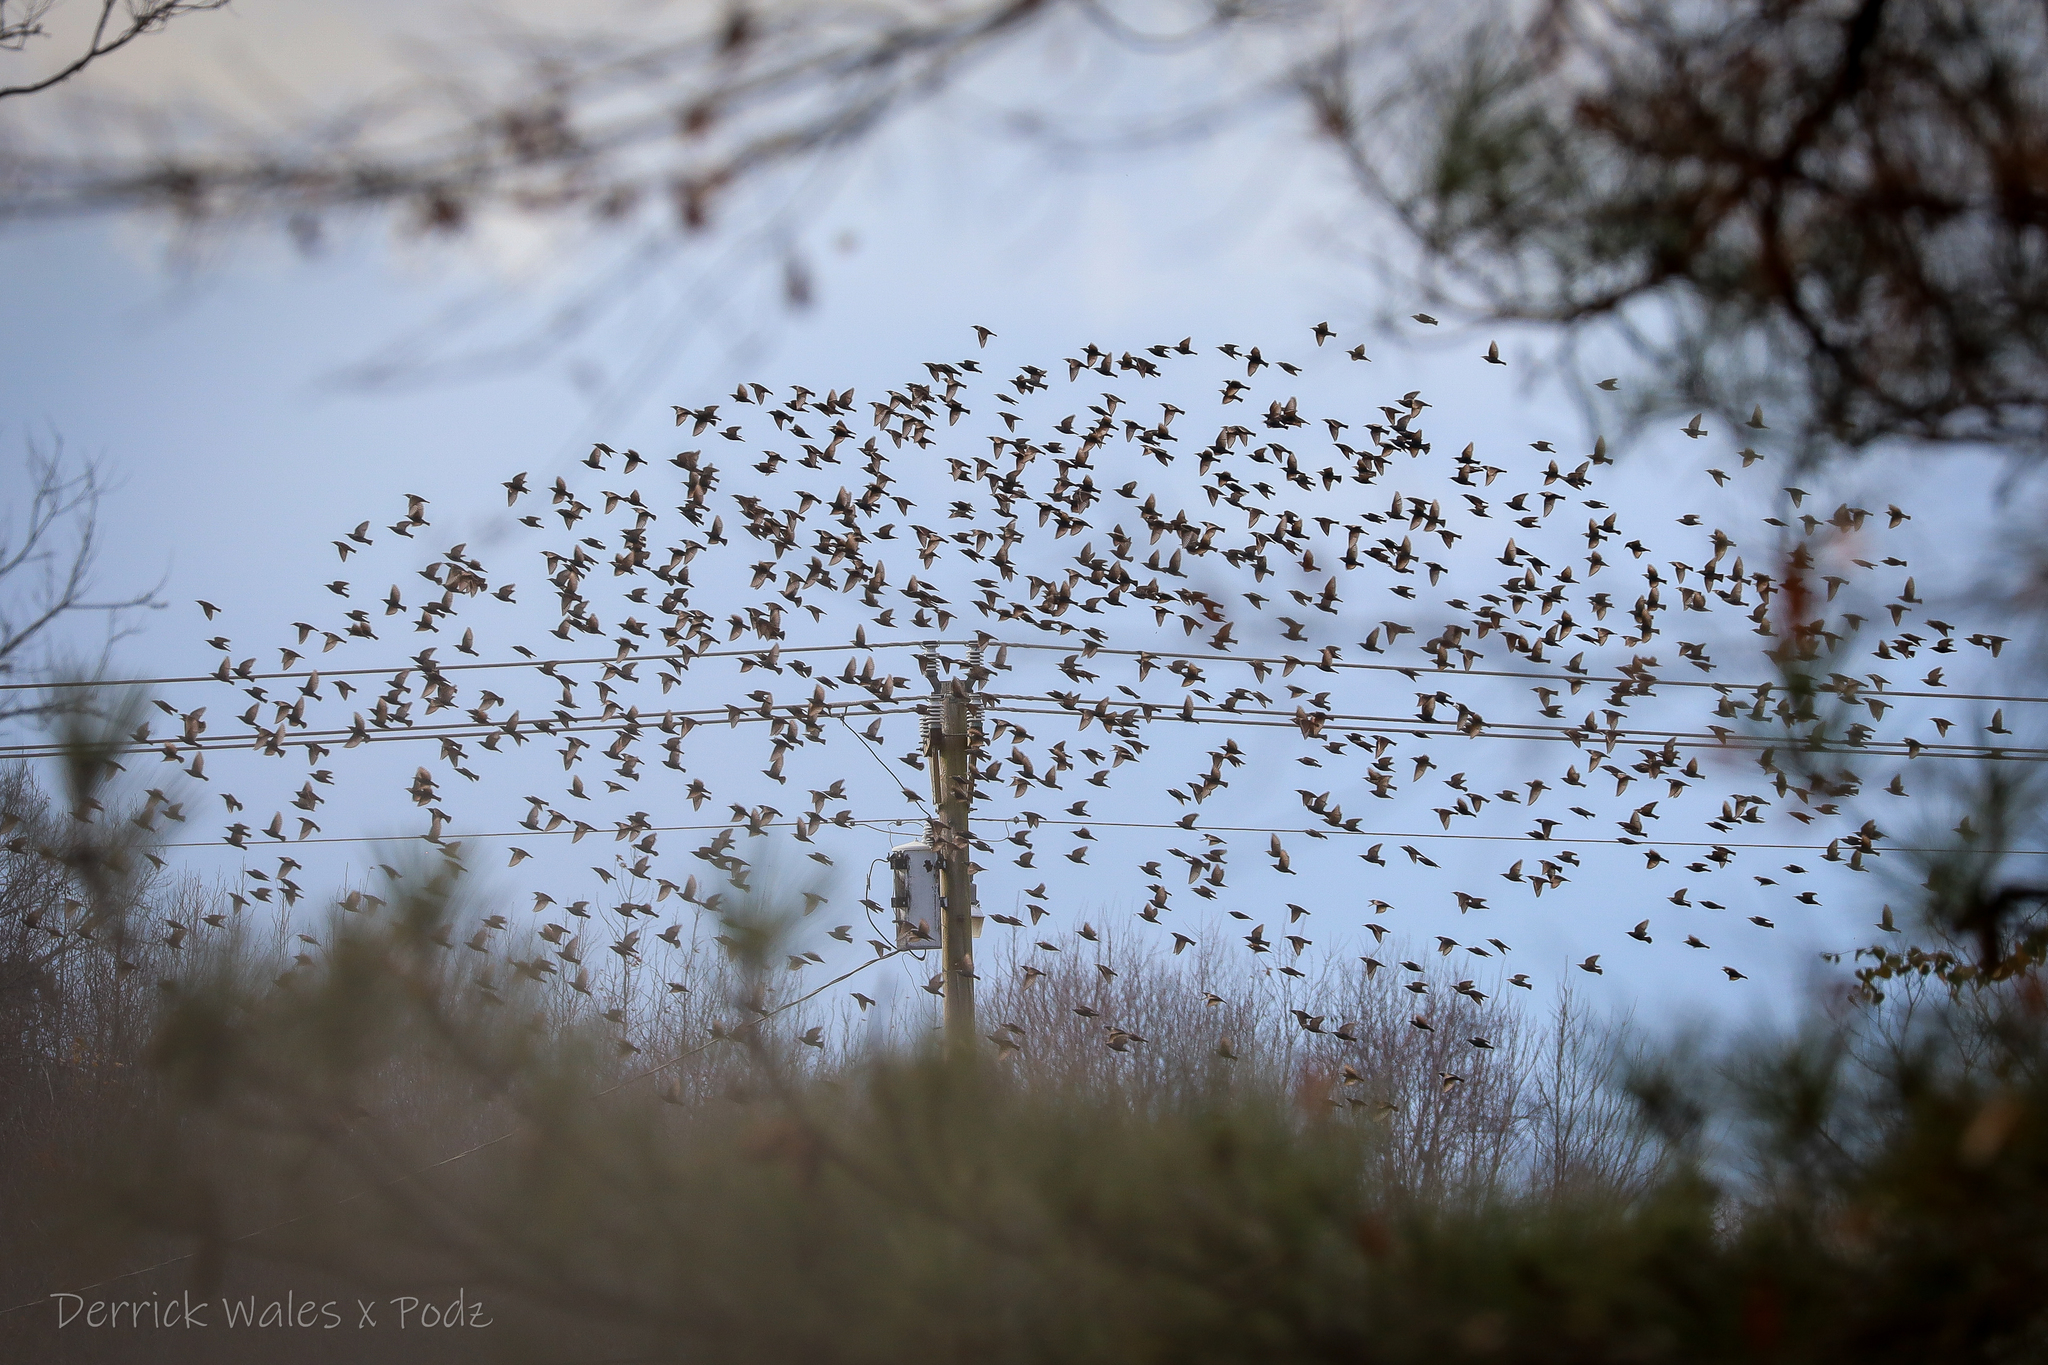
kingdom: Animalia
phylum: Chordata
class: Aves
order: Passeriformes
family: Sturnidae
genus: Sturnus
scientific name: Sturnus vulgaris
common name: Common starling
